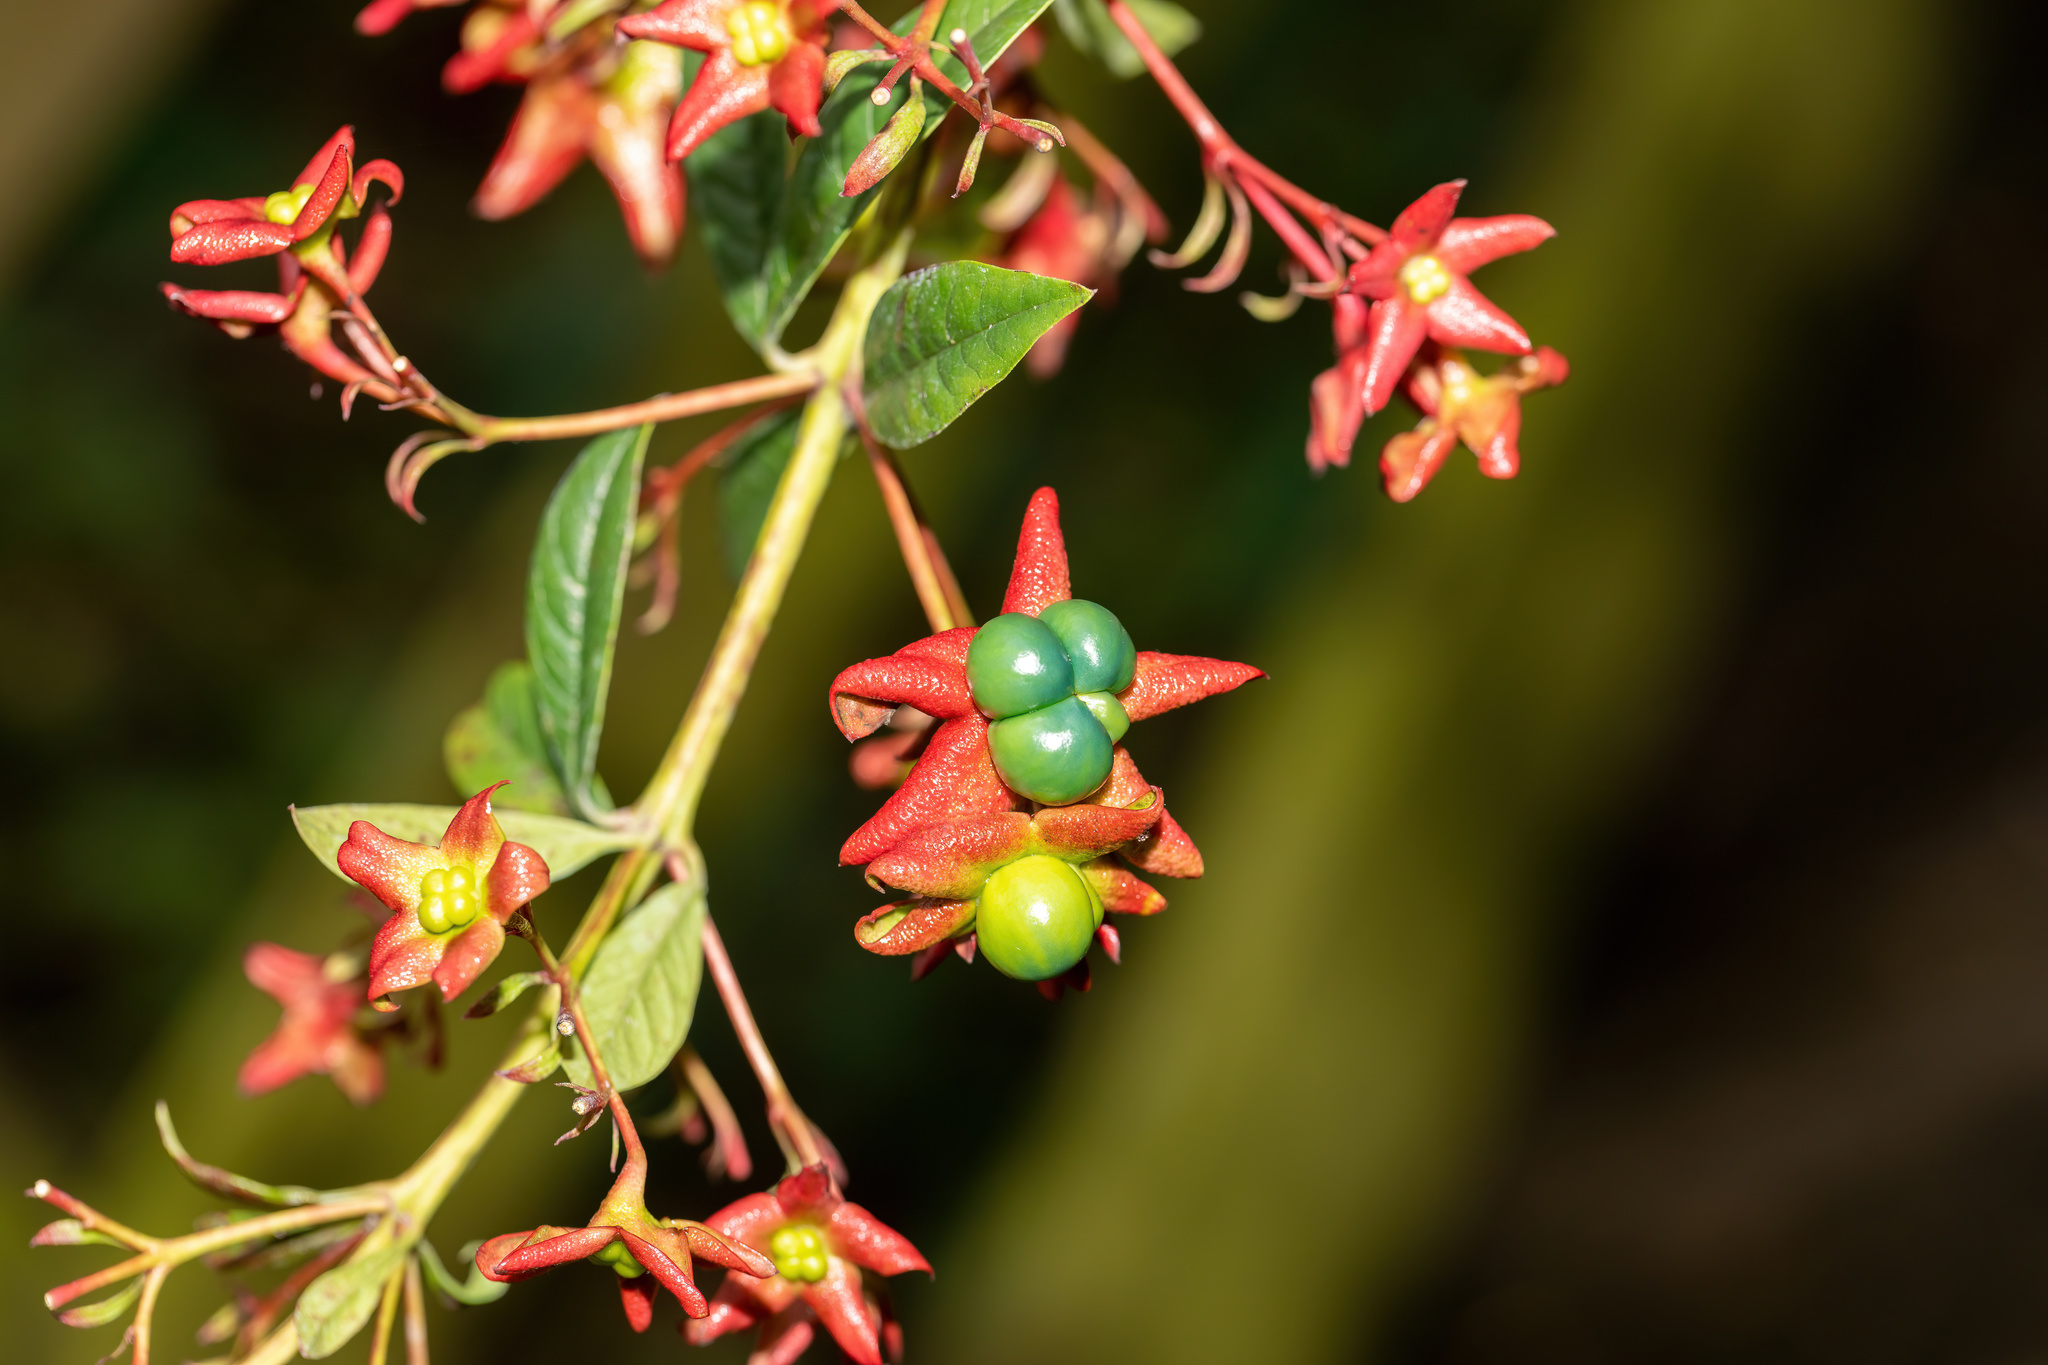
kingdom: Plantae
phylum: Tracheophyta
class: Magnoliopsida
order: Lamiales
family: Lamiaceae
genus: Clerodendrum
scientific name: Clerodendrum indicum
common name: Turk's turbin
